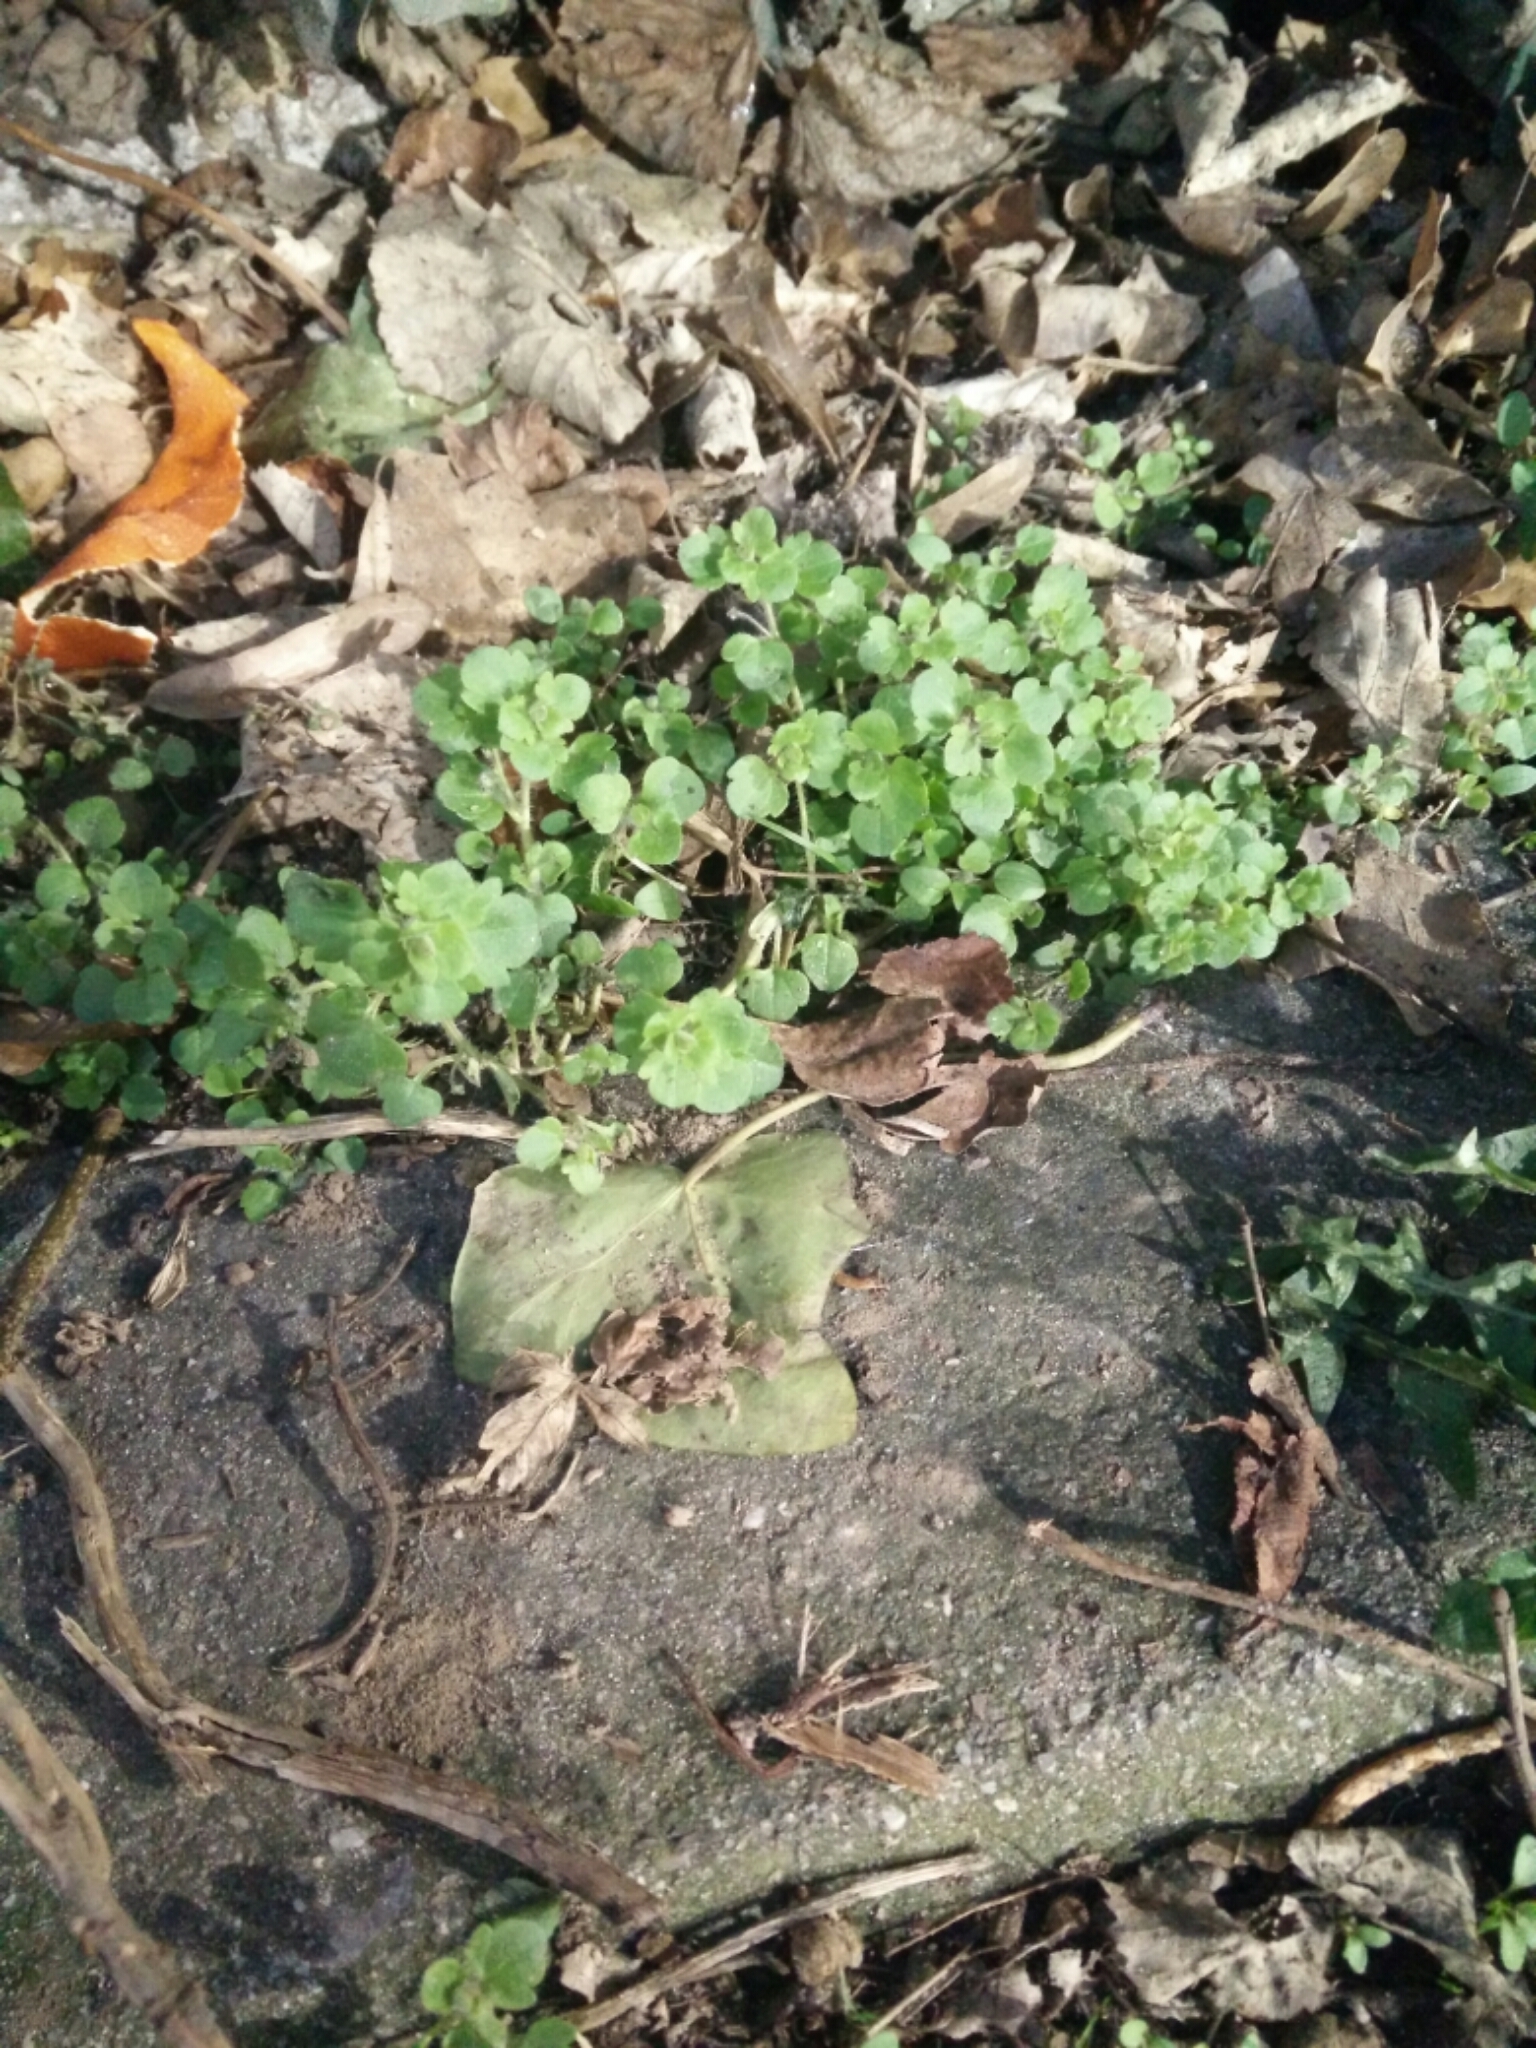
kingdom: Plantae
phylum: Tracheophyta
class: Magnoliopsida
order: Lamiales
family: Plantaginaceae
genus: Veronica
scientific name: Veronica hederifolia
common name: Ivy-leaved speedwell
